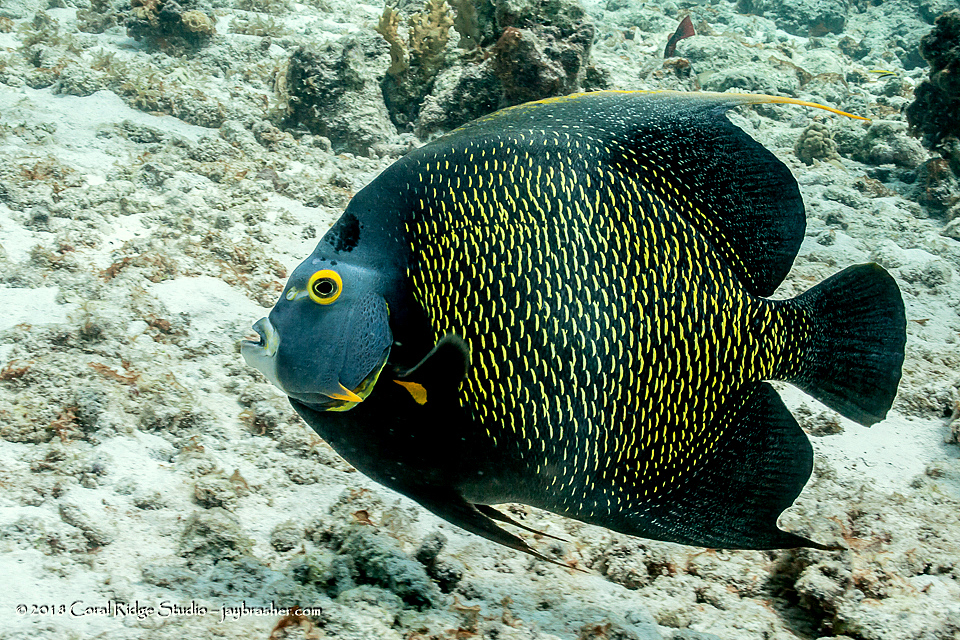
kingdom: Animalia
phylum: Chordata
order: Perciformes
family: Pomacanthidae
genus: Pomacanthus
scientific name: Pomacanthus paru
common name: French angelfish
